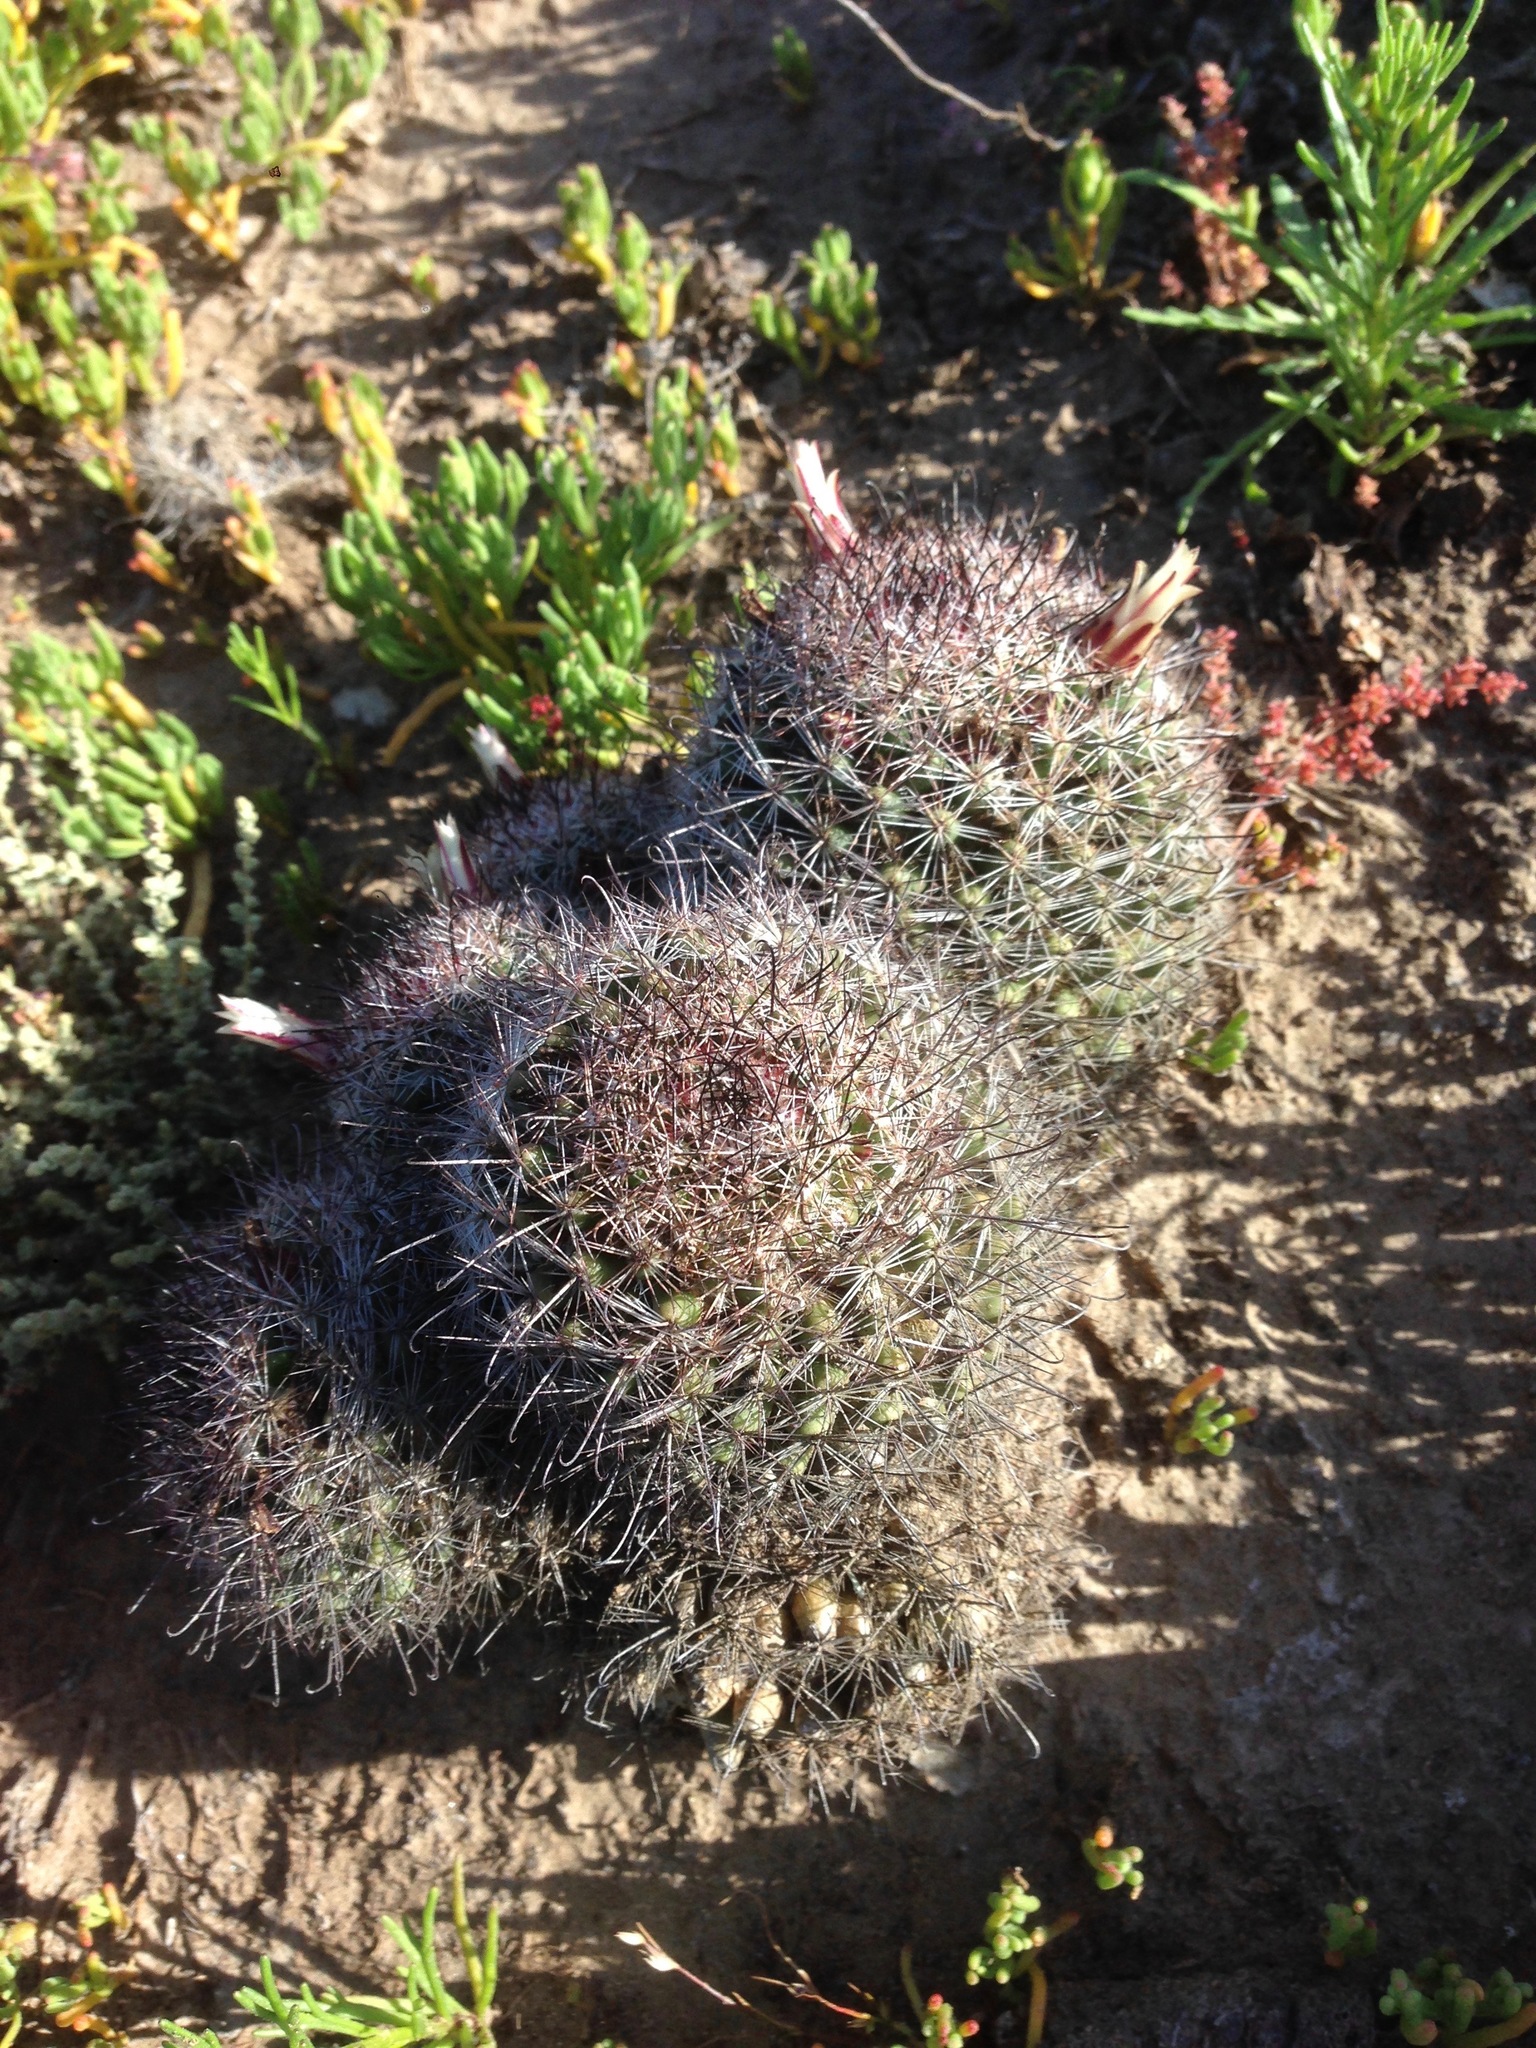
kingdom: Plantae
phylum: Tracheophyta
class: Magnoliopsida
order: Caryophyllales
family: Cactaceae
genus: Cochemiea
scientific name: Cochemiea dioica
